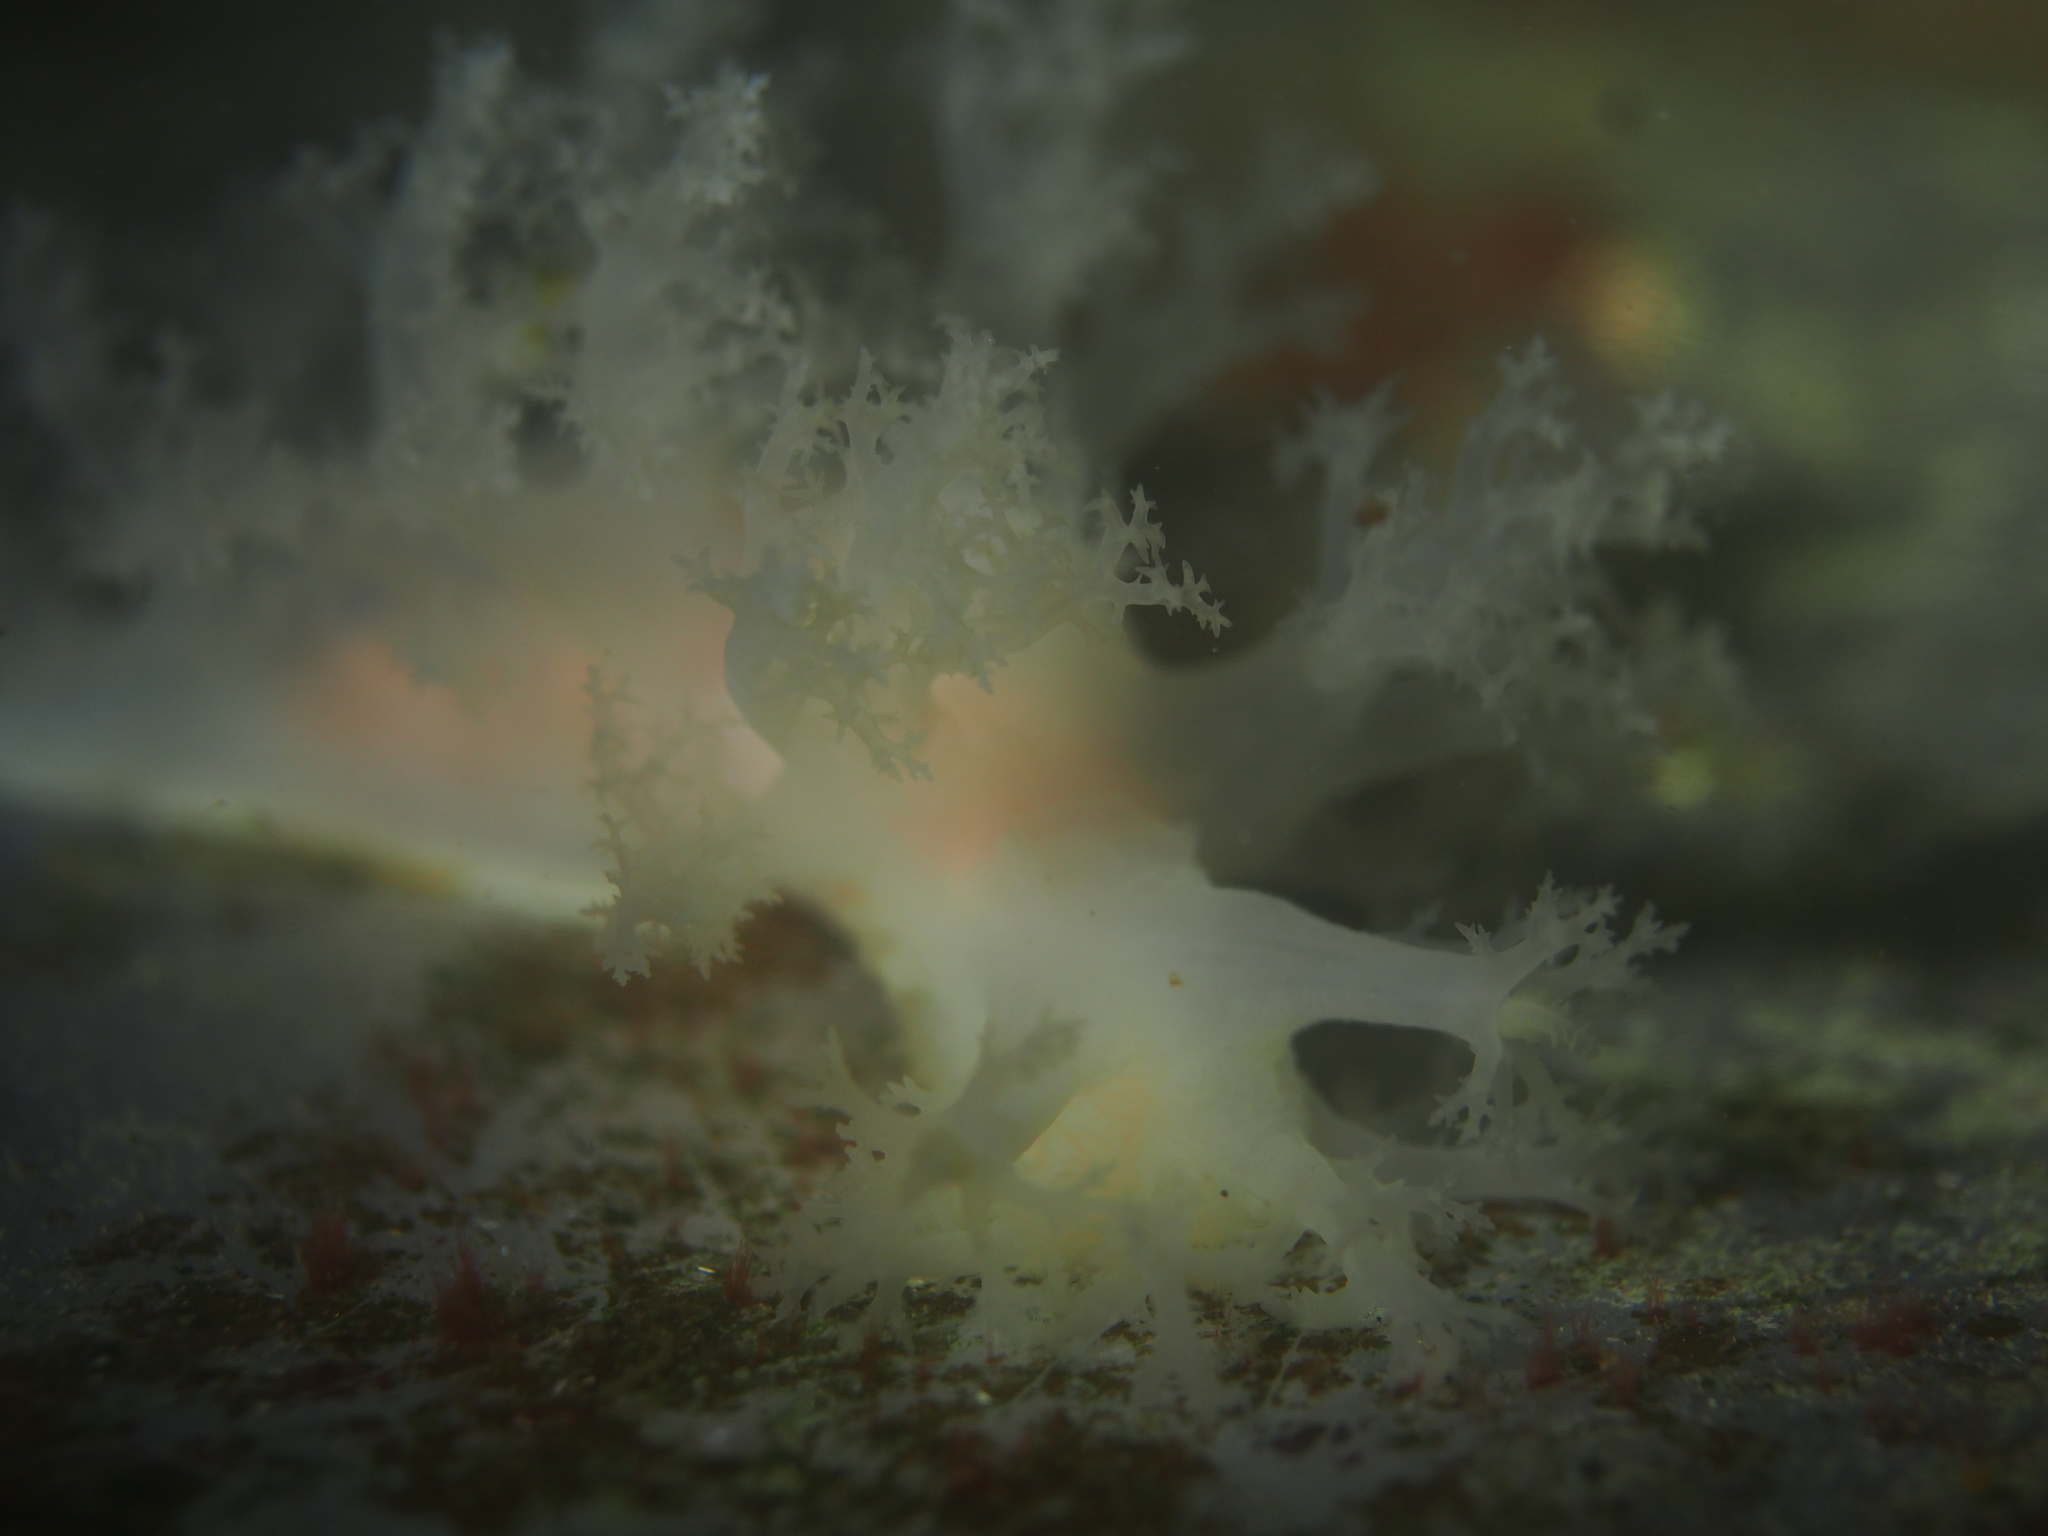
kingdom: Animalia
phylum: Mollusca
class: Gastropoda
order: Nudibranchia
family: Dendronotidae
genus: Dendronotus
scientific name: Dendronotus lacteus
